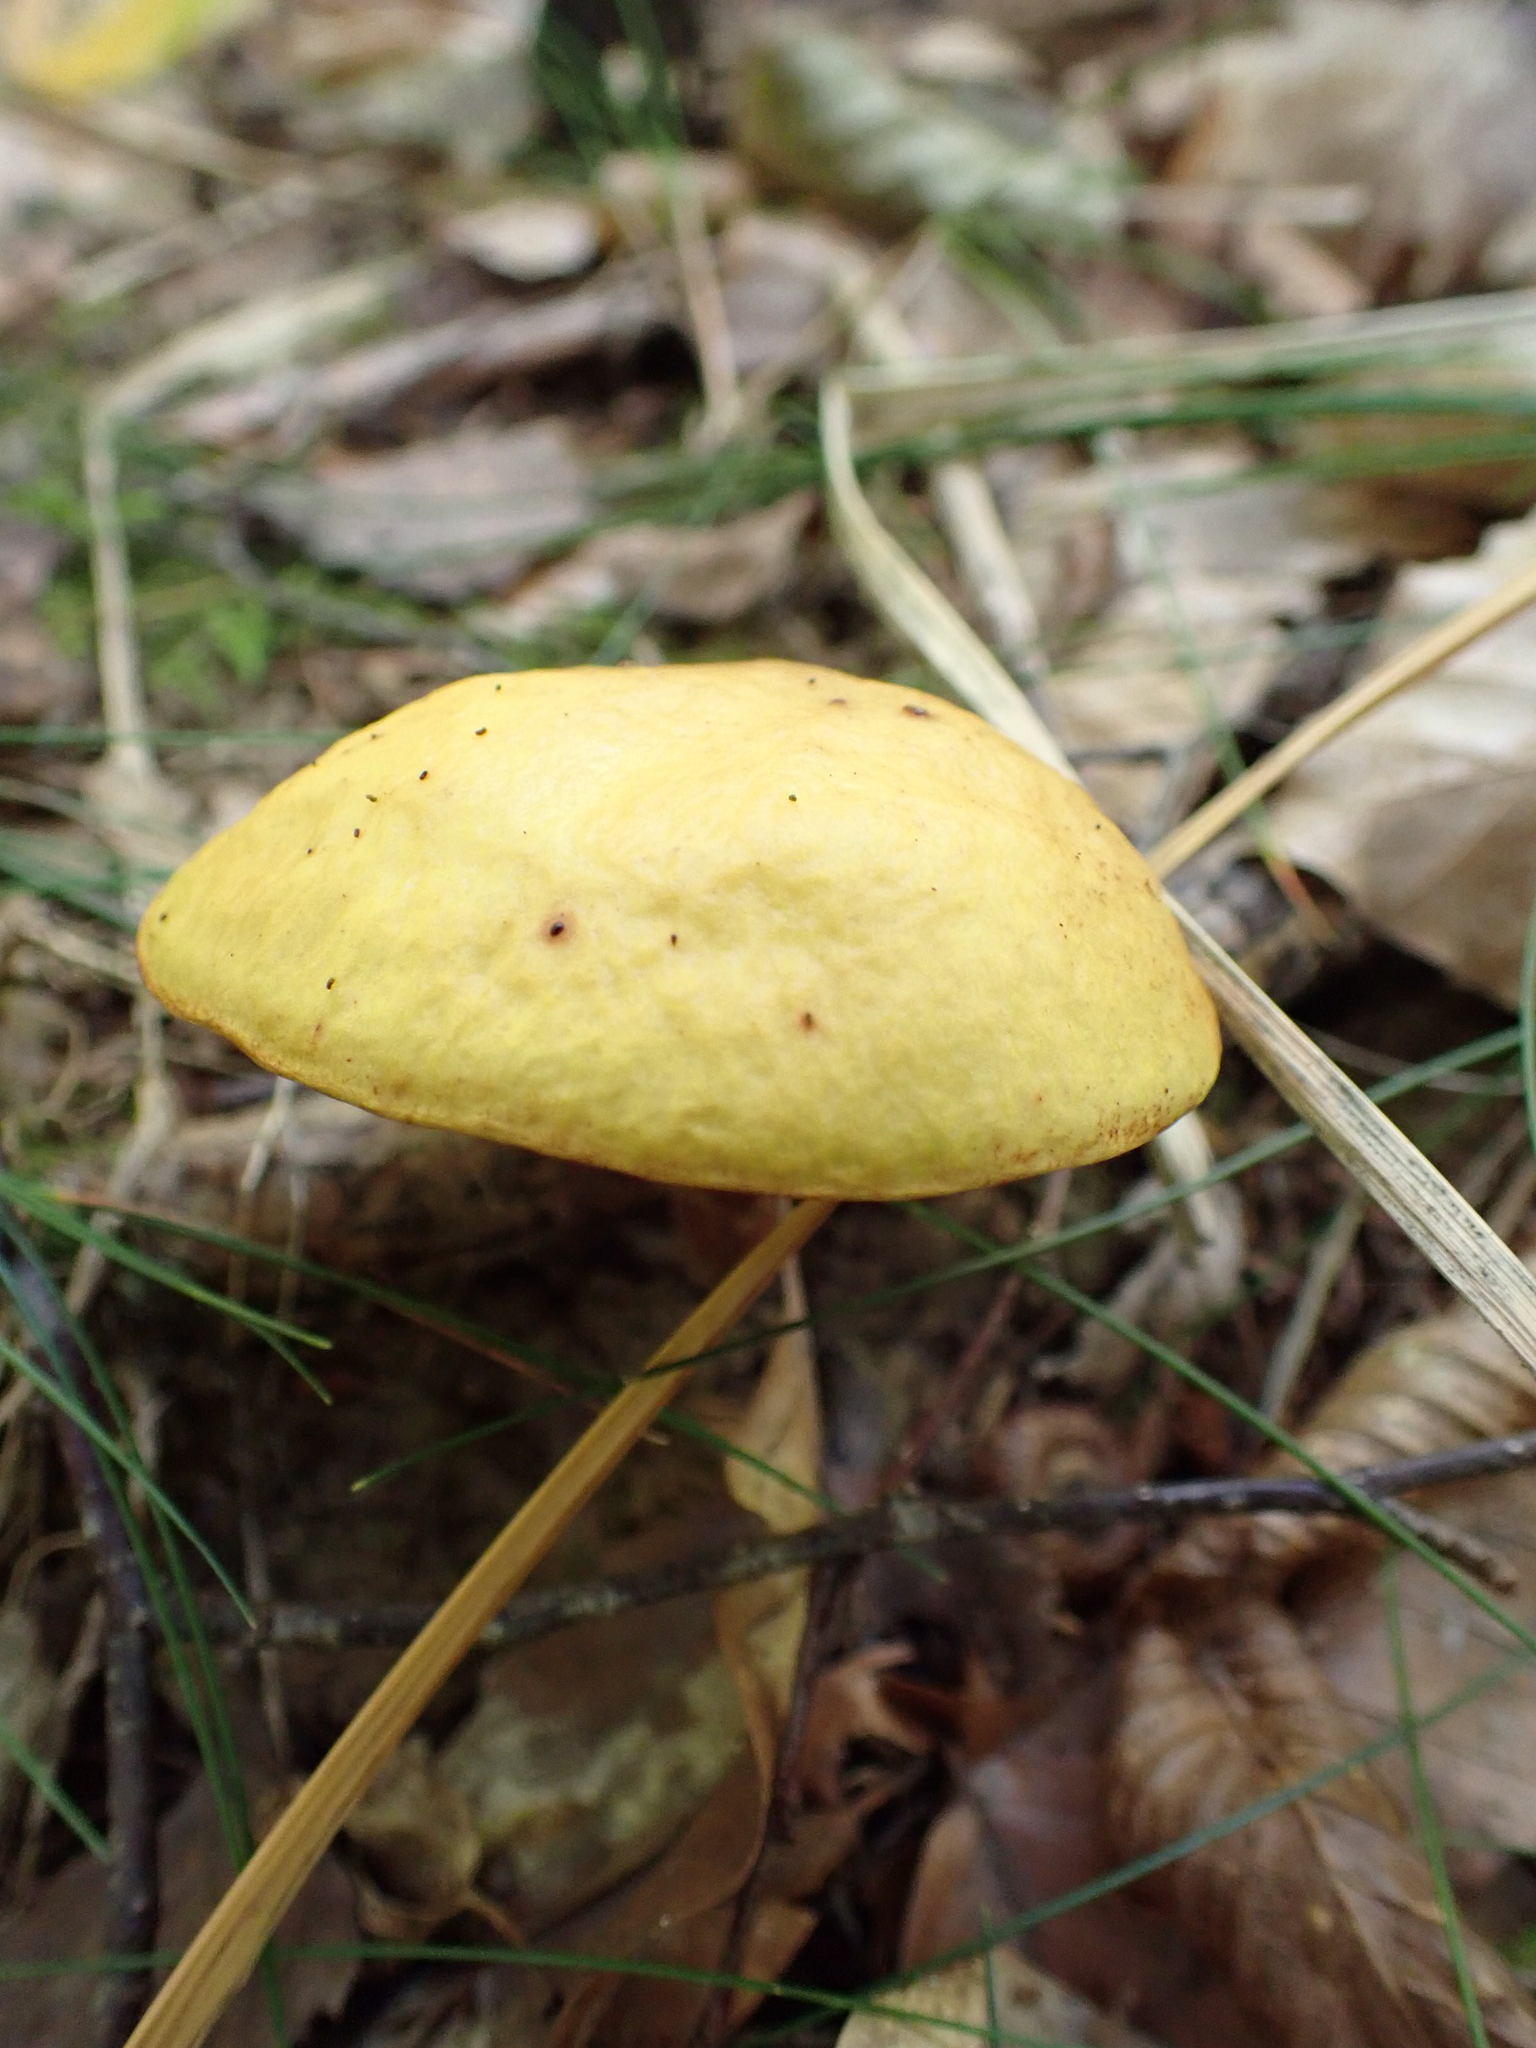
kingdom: Fungi
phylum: Basidiomycota
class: Agaricomycetes
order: Boletales
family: Suillaceae
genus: Suillus
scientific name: Suillus grevillei
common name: Larch bolete
